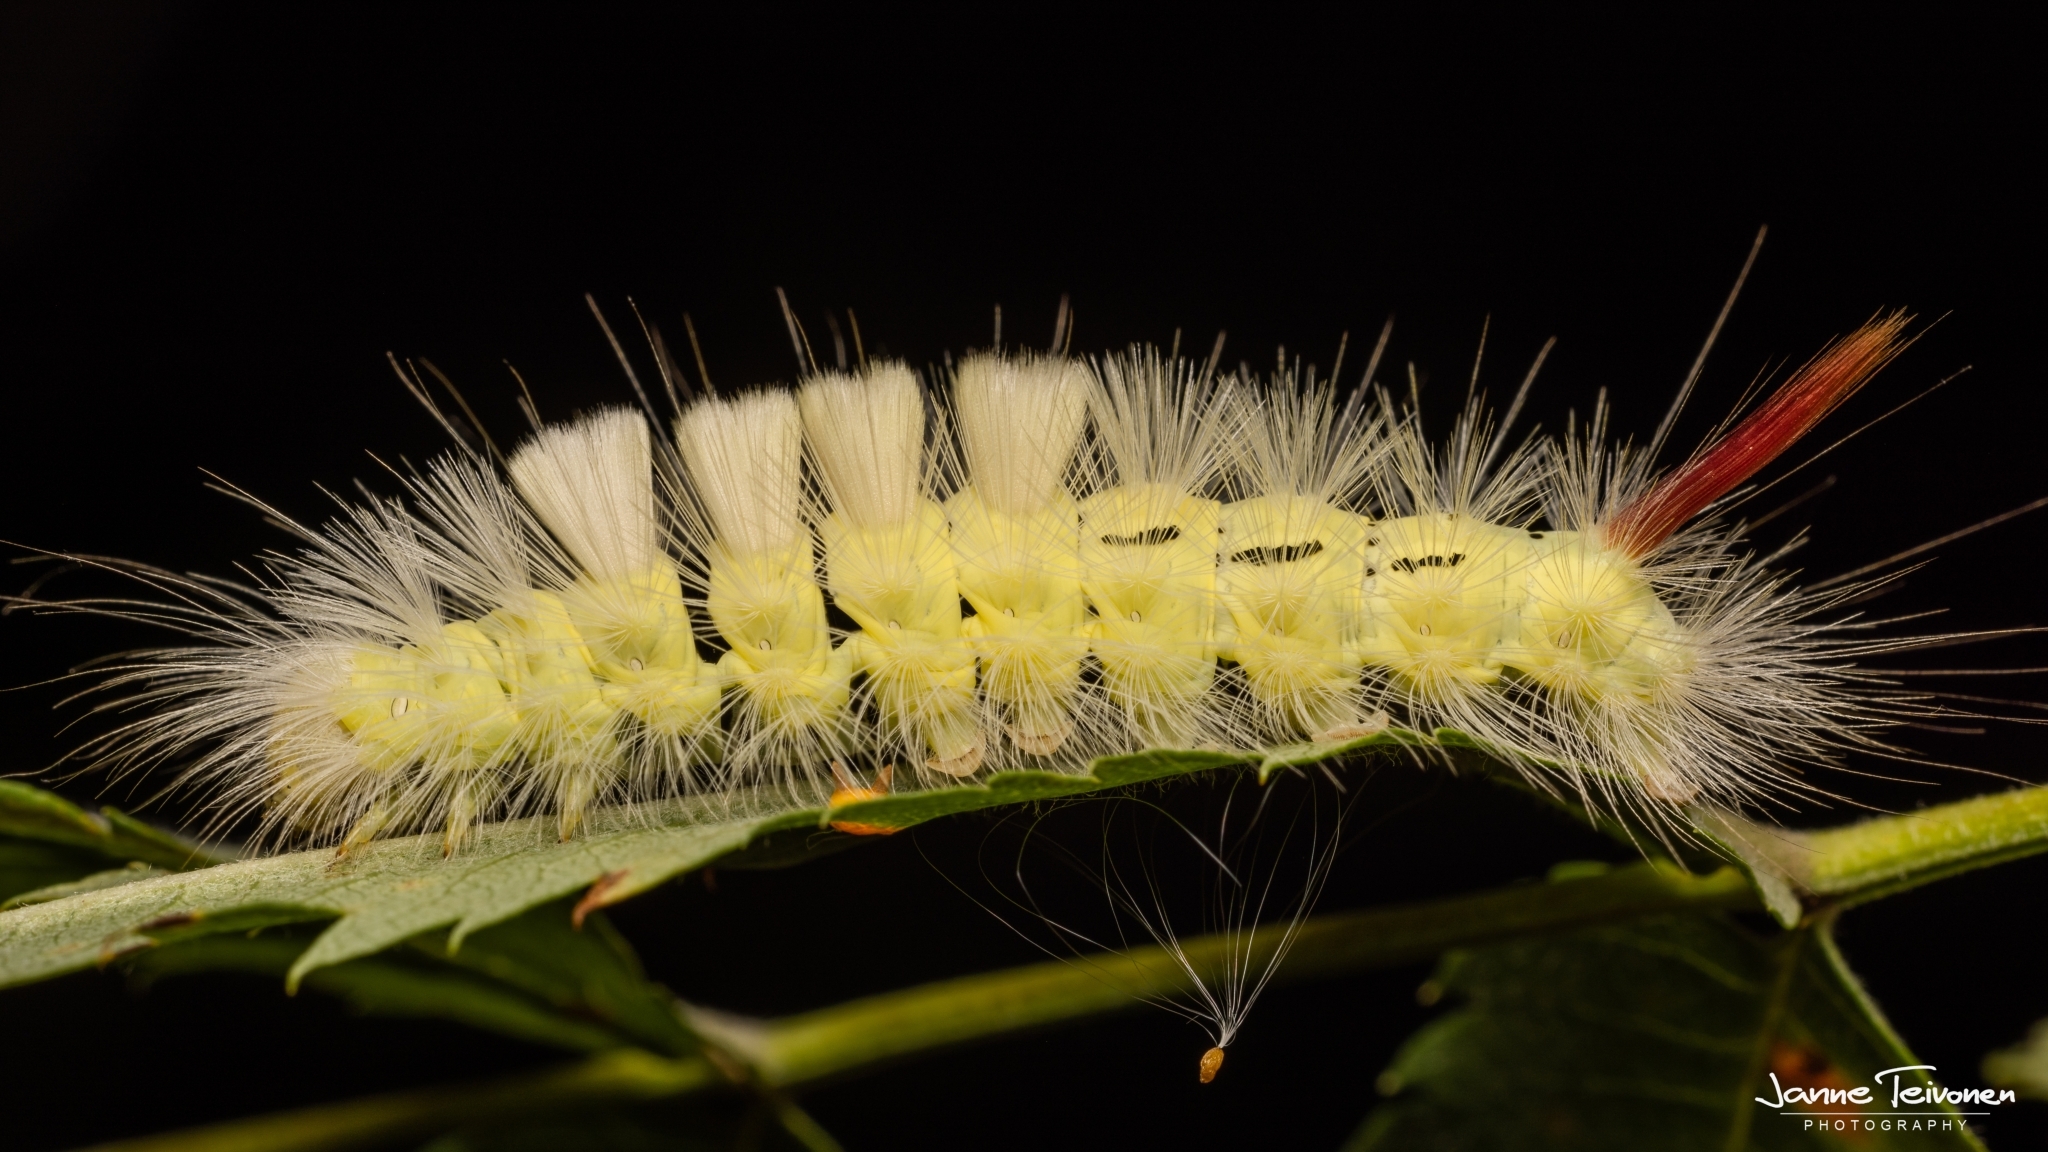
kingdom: Animalia
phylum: Arthropoda
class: Insecta
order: Lepidoptera
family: Erebidae
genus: Calliteara
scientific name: Calliteara pudibunda
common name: Pale tussock
